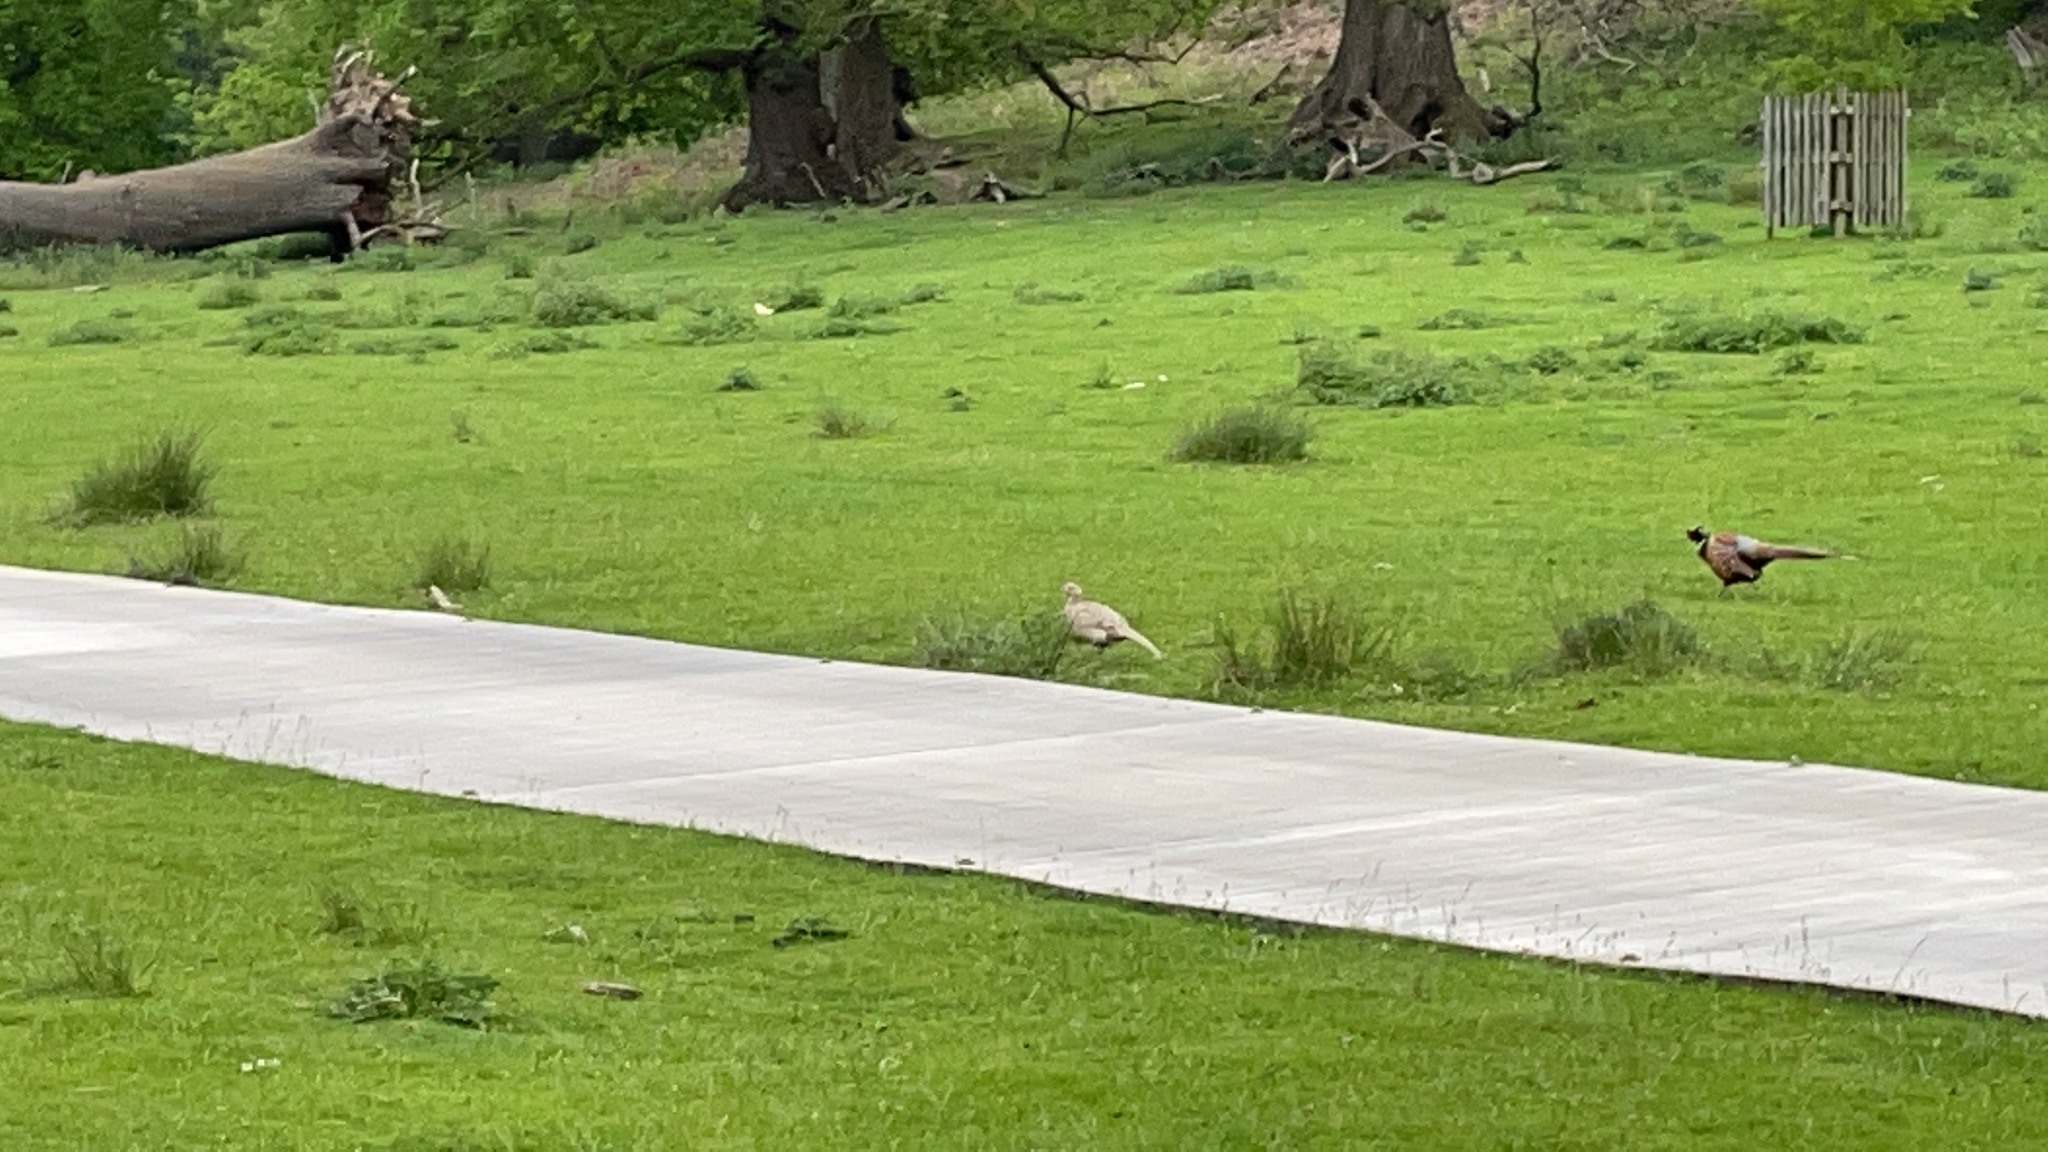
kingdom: Animalia
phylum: Chordata
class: Aves
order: Galliformes
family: Phasianidae
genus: Phasianus
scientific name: Phasianus colchicus
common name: Common pheasant
